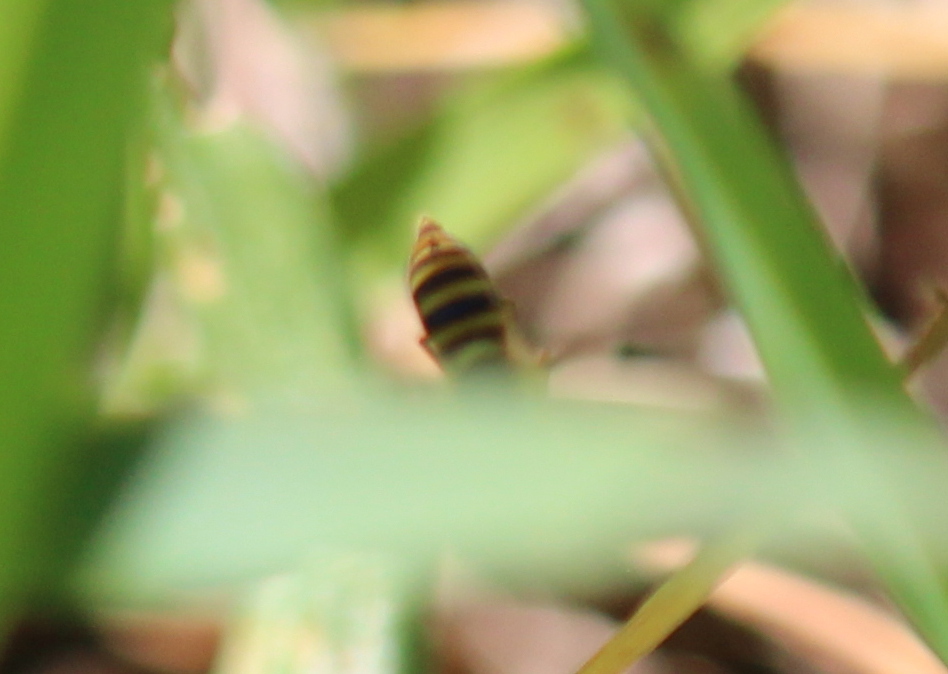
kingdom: Animalia
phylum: Arthropoda
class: Insecta
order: Diptera
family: Syrphidae
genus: Sphaerophoria
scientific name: Sphaerophoria
